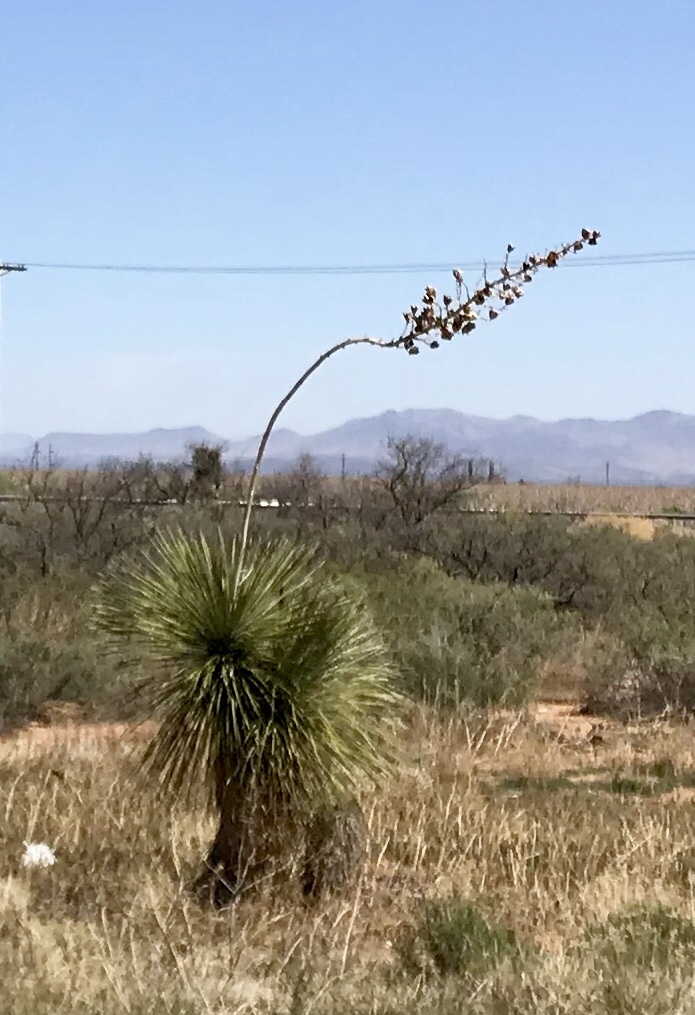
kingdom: Plantae
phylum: Tracheophyta
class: Liliopsida
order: Asparagales
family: Asparagaceae
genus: Yucca
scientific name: Yucca elata
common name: Palmella
